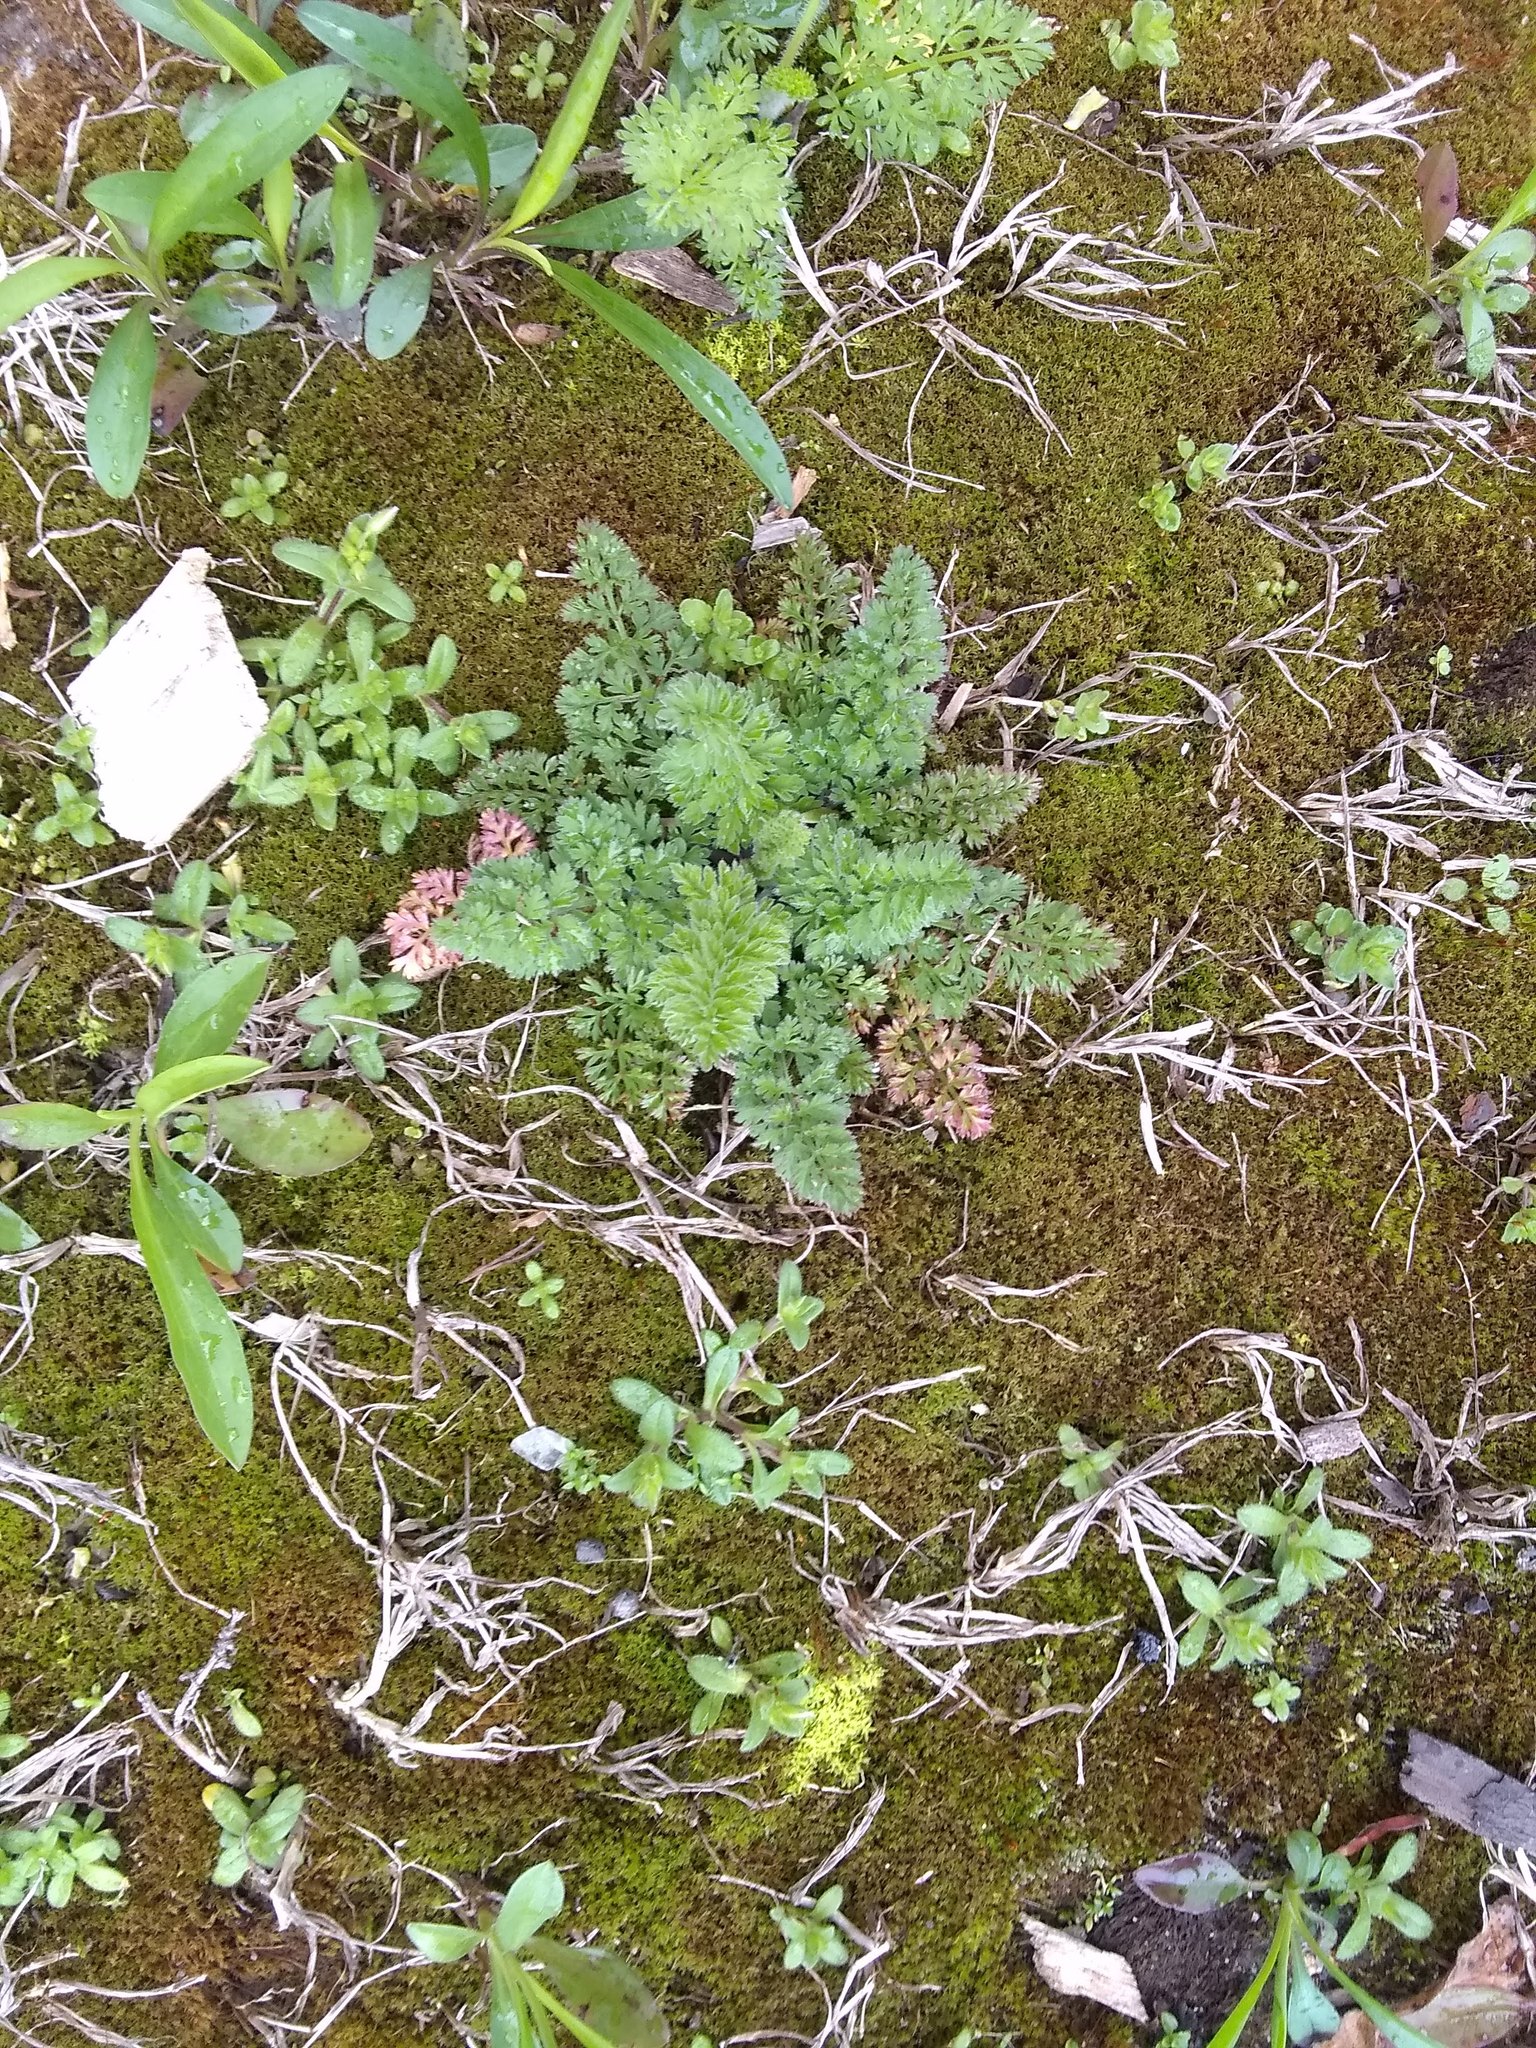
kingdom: Plantae
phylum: Tracheophyta
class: Magnoliopsida
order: Apiales
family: Apiaceae
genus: Daucus
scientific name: Daucus carota
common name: Wild carrot
